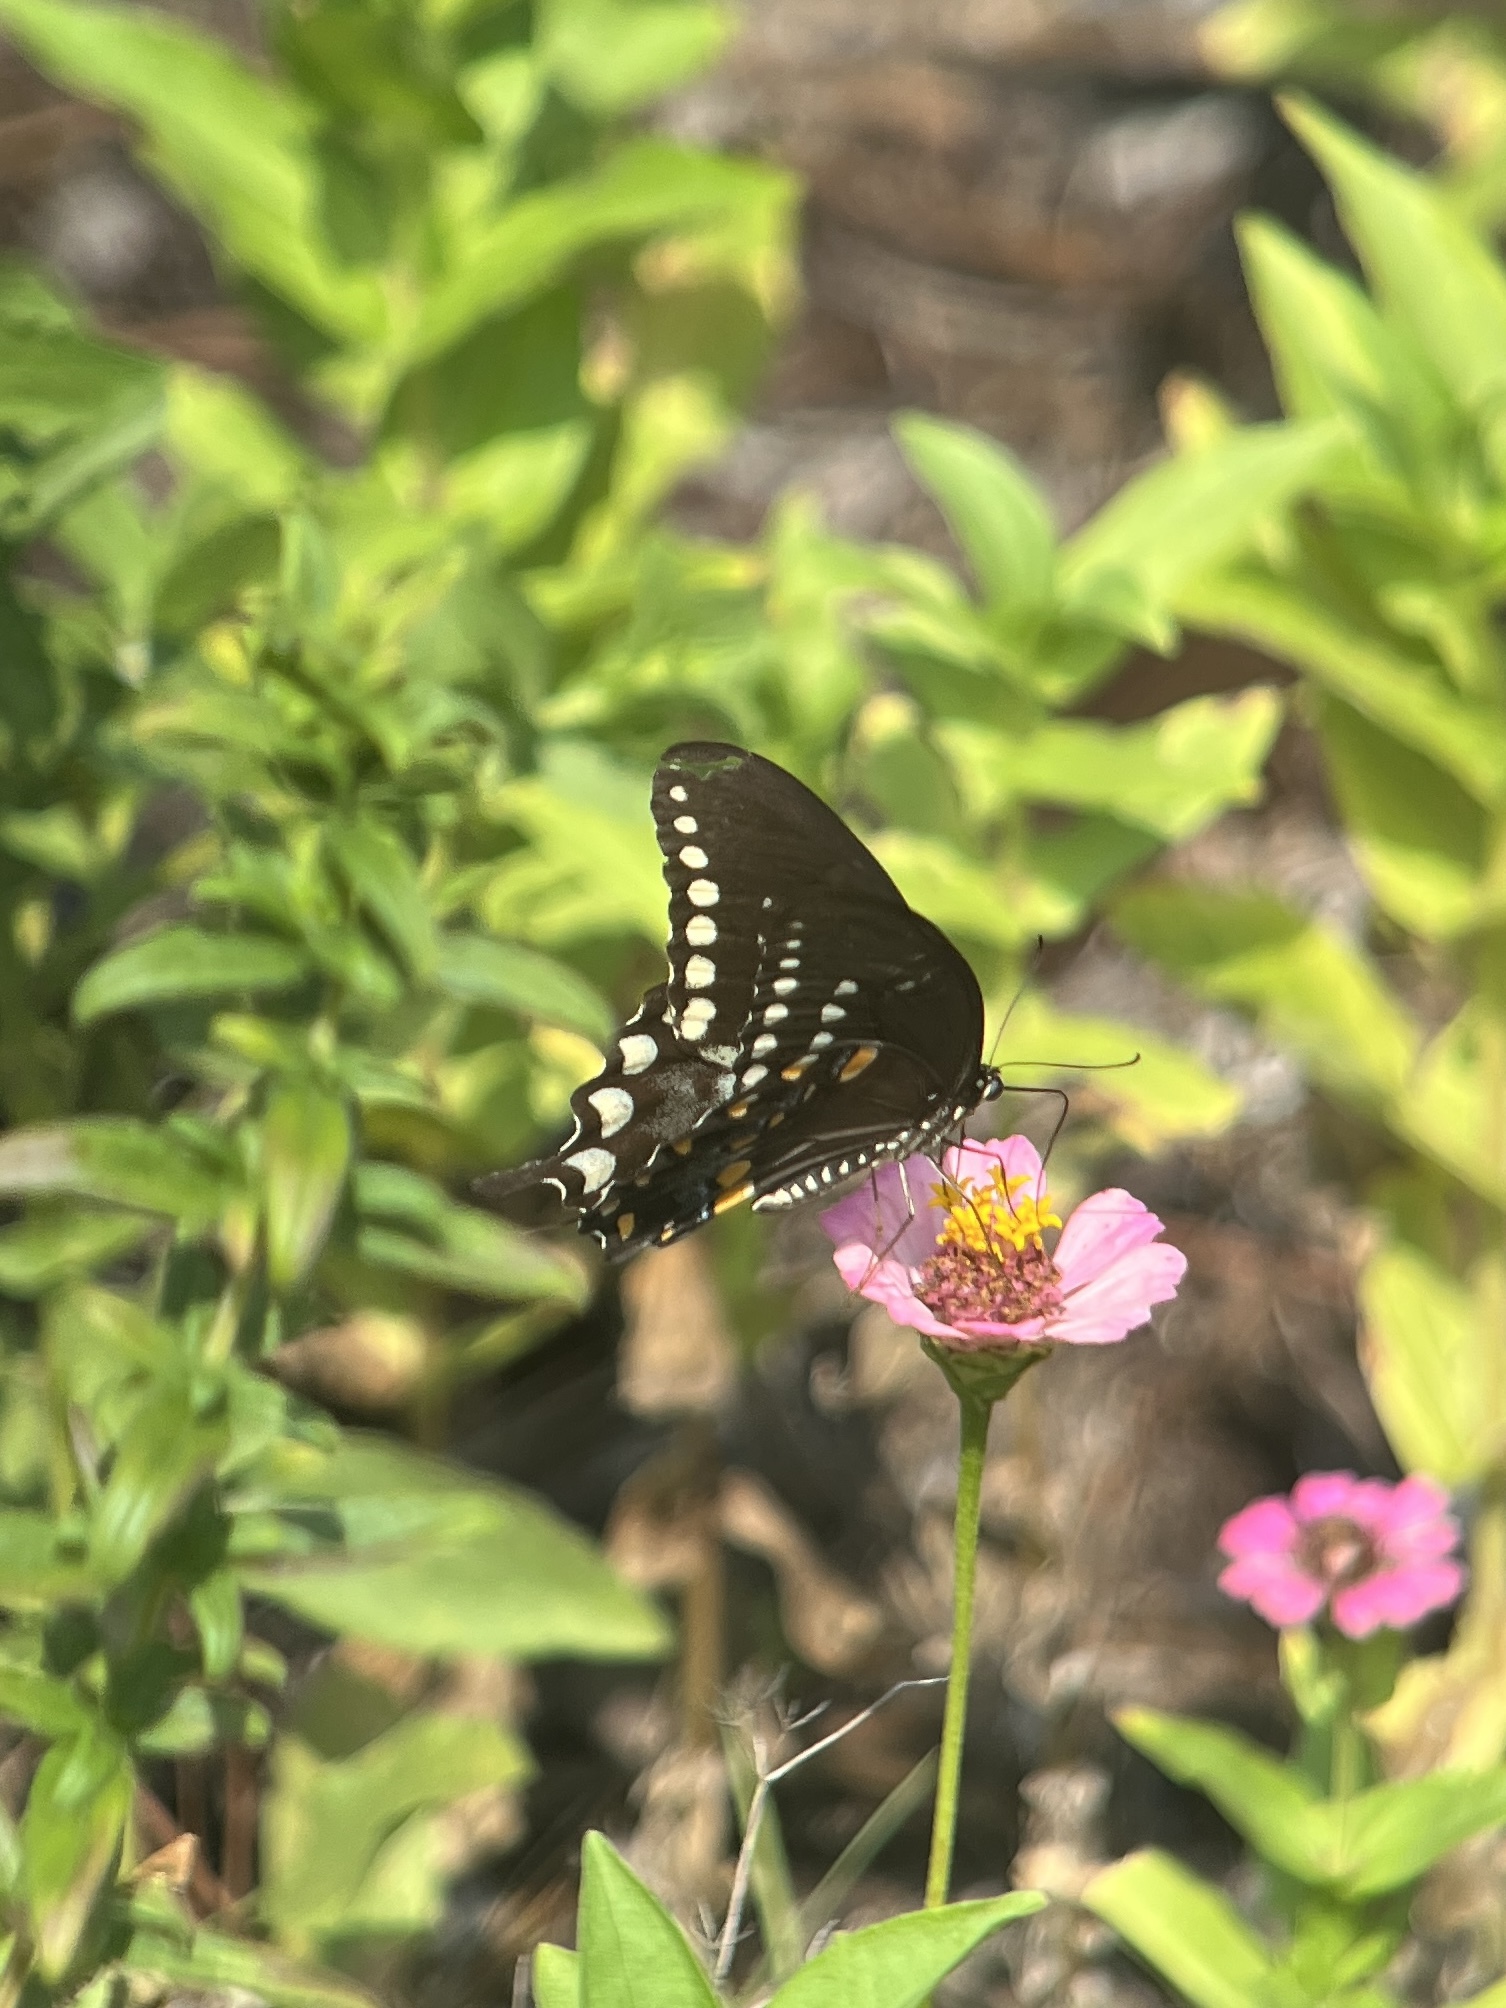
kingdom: Animalia
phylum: Arthropoda
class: Insecta
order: Lepidoptera
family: Papilionidae
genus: Papilio
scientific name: Papilio troilus
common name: Spicebush swallowtail
